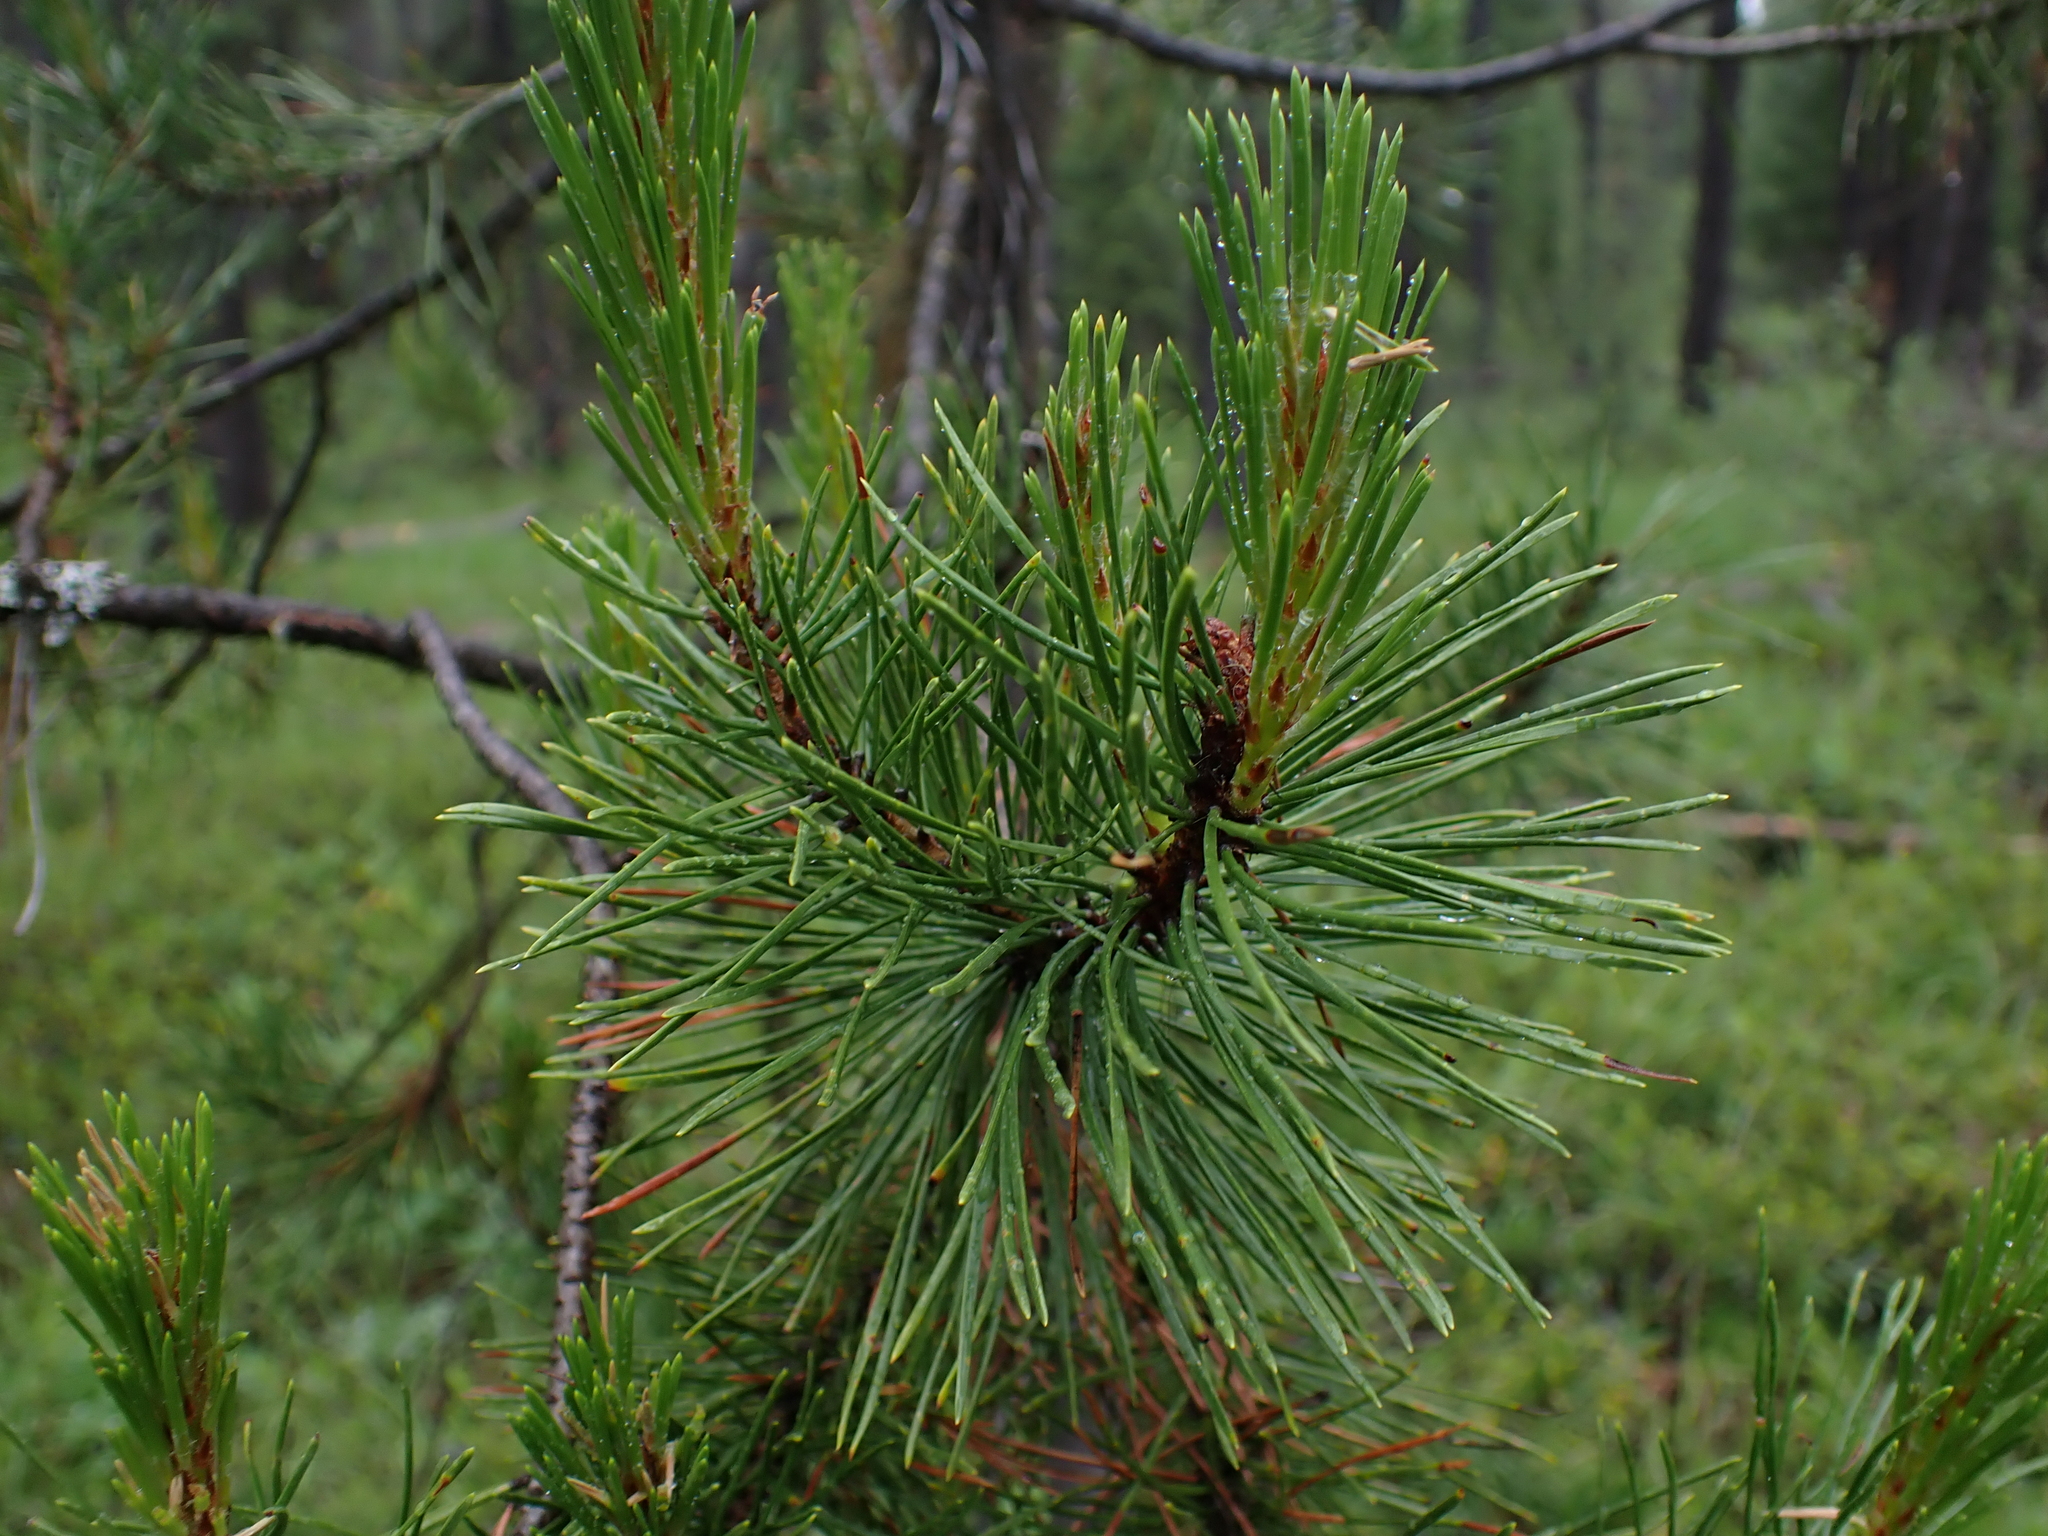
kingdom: Plantae
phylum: Tracheophyta
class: Pinopsida
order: Pinales
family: Pinaceae
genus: Pinus
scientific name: Pinus contorta
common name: Lodgepole pine
